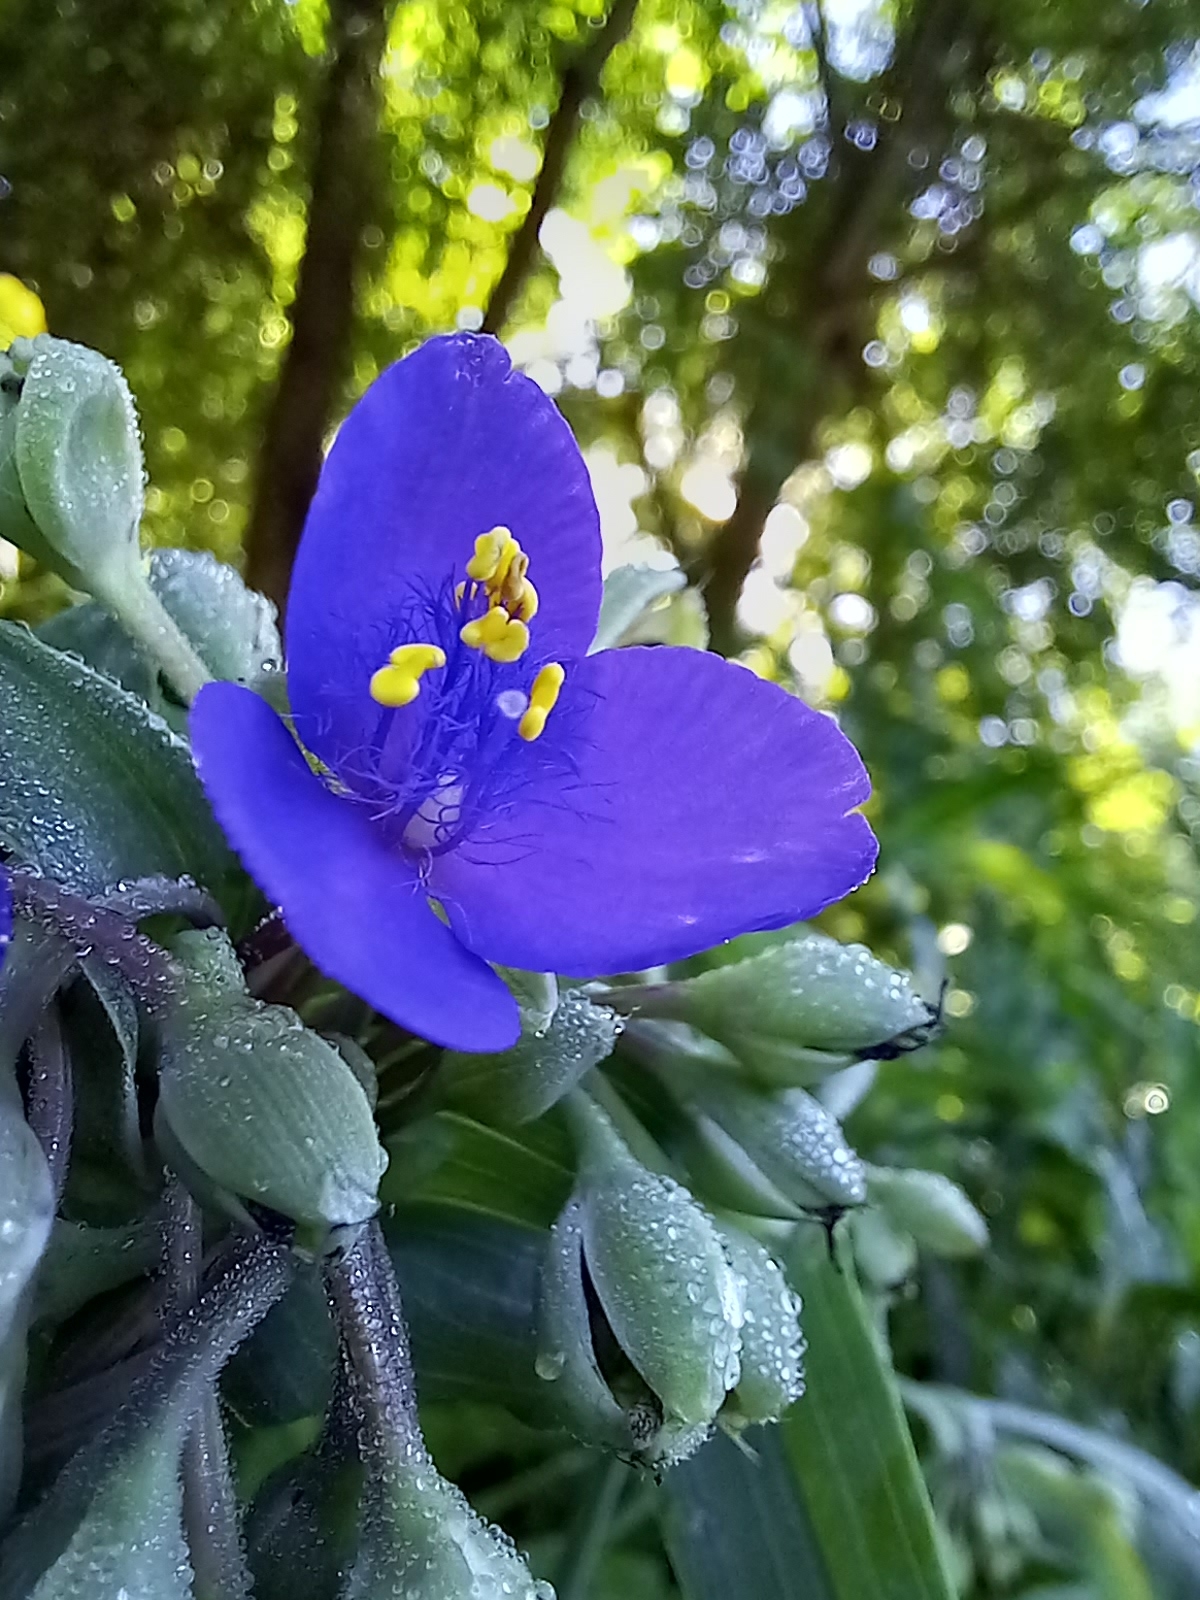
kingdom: Plantae
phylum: Tracheophyta
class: Liliopsida
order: Commelinales
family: Commelinaceae
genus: Tradescantia
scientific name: Tradescantia ohiensis
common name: Ohio spiderwort
